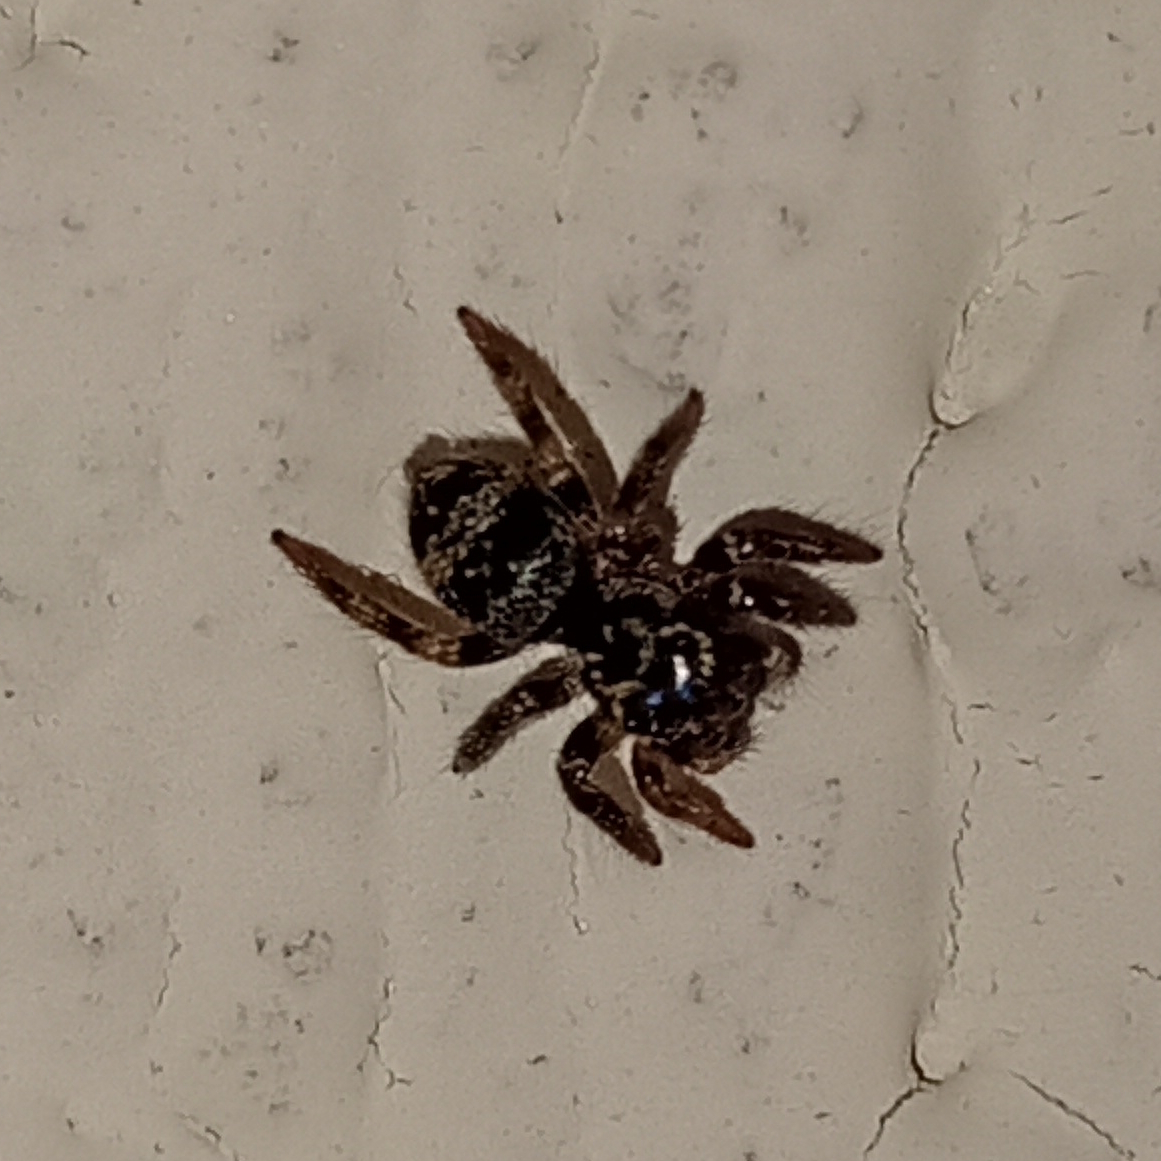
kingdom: Animalia
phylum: Arthropoda
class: Arachnida
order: Araneae
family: Salticidae
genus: Corythalia
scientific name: Corythalia conferta
